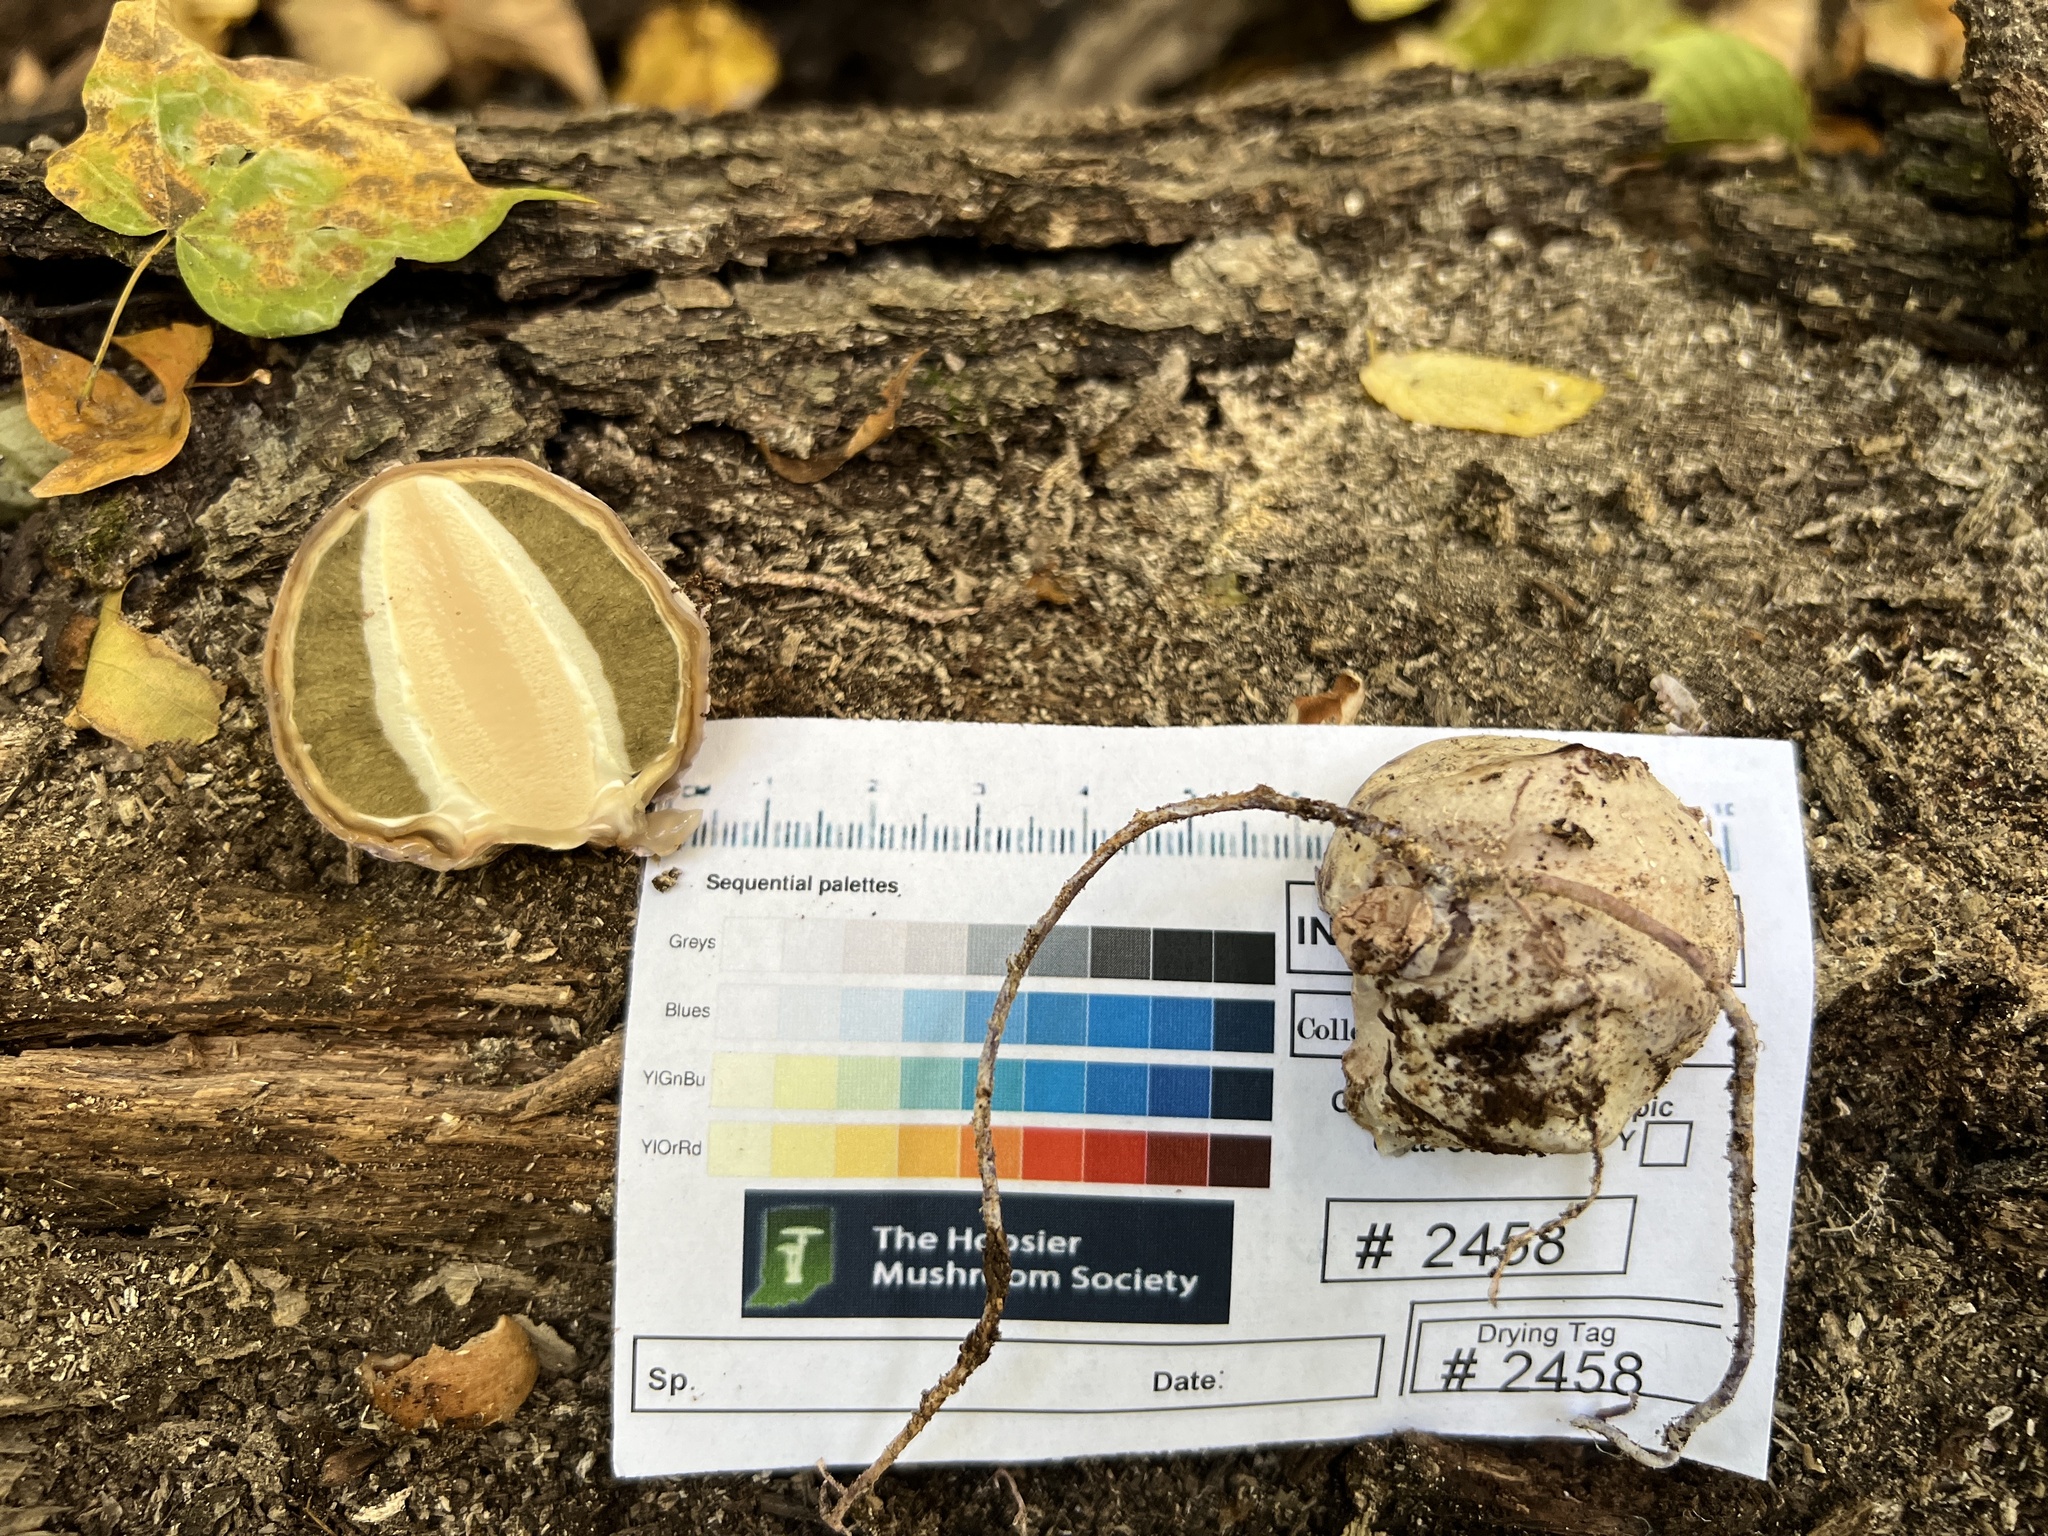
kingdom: Fungi
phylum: Basidiomycota
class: Agaricomycetes
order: Phallales
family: Phallaceae
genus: Phallus
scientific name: Phallus ravenelii
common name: Ravenel's stinkhorn
